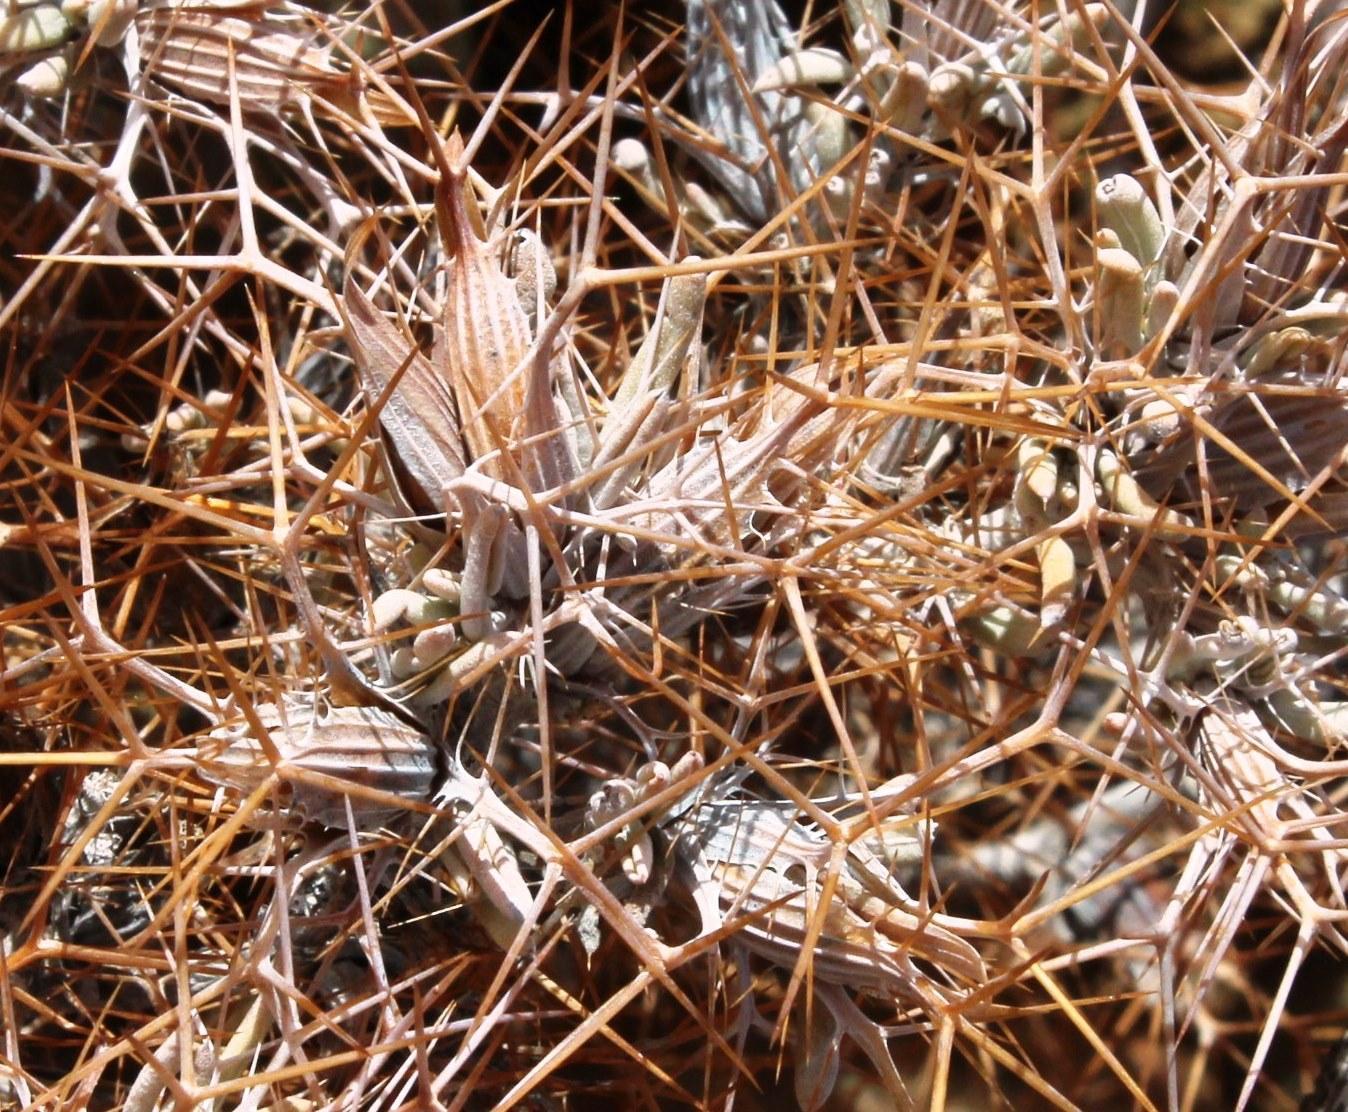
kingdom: Plantae
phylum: Tracheophyta
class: Magnoliopsida
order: Lamiales
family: Acanthaceae
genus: Blepharis
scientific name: Blepharis furcata
